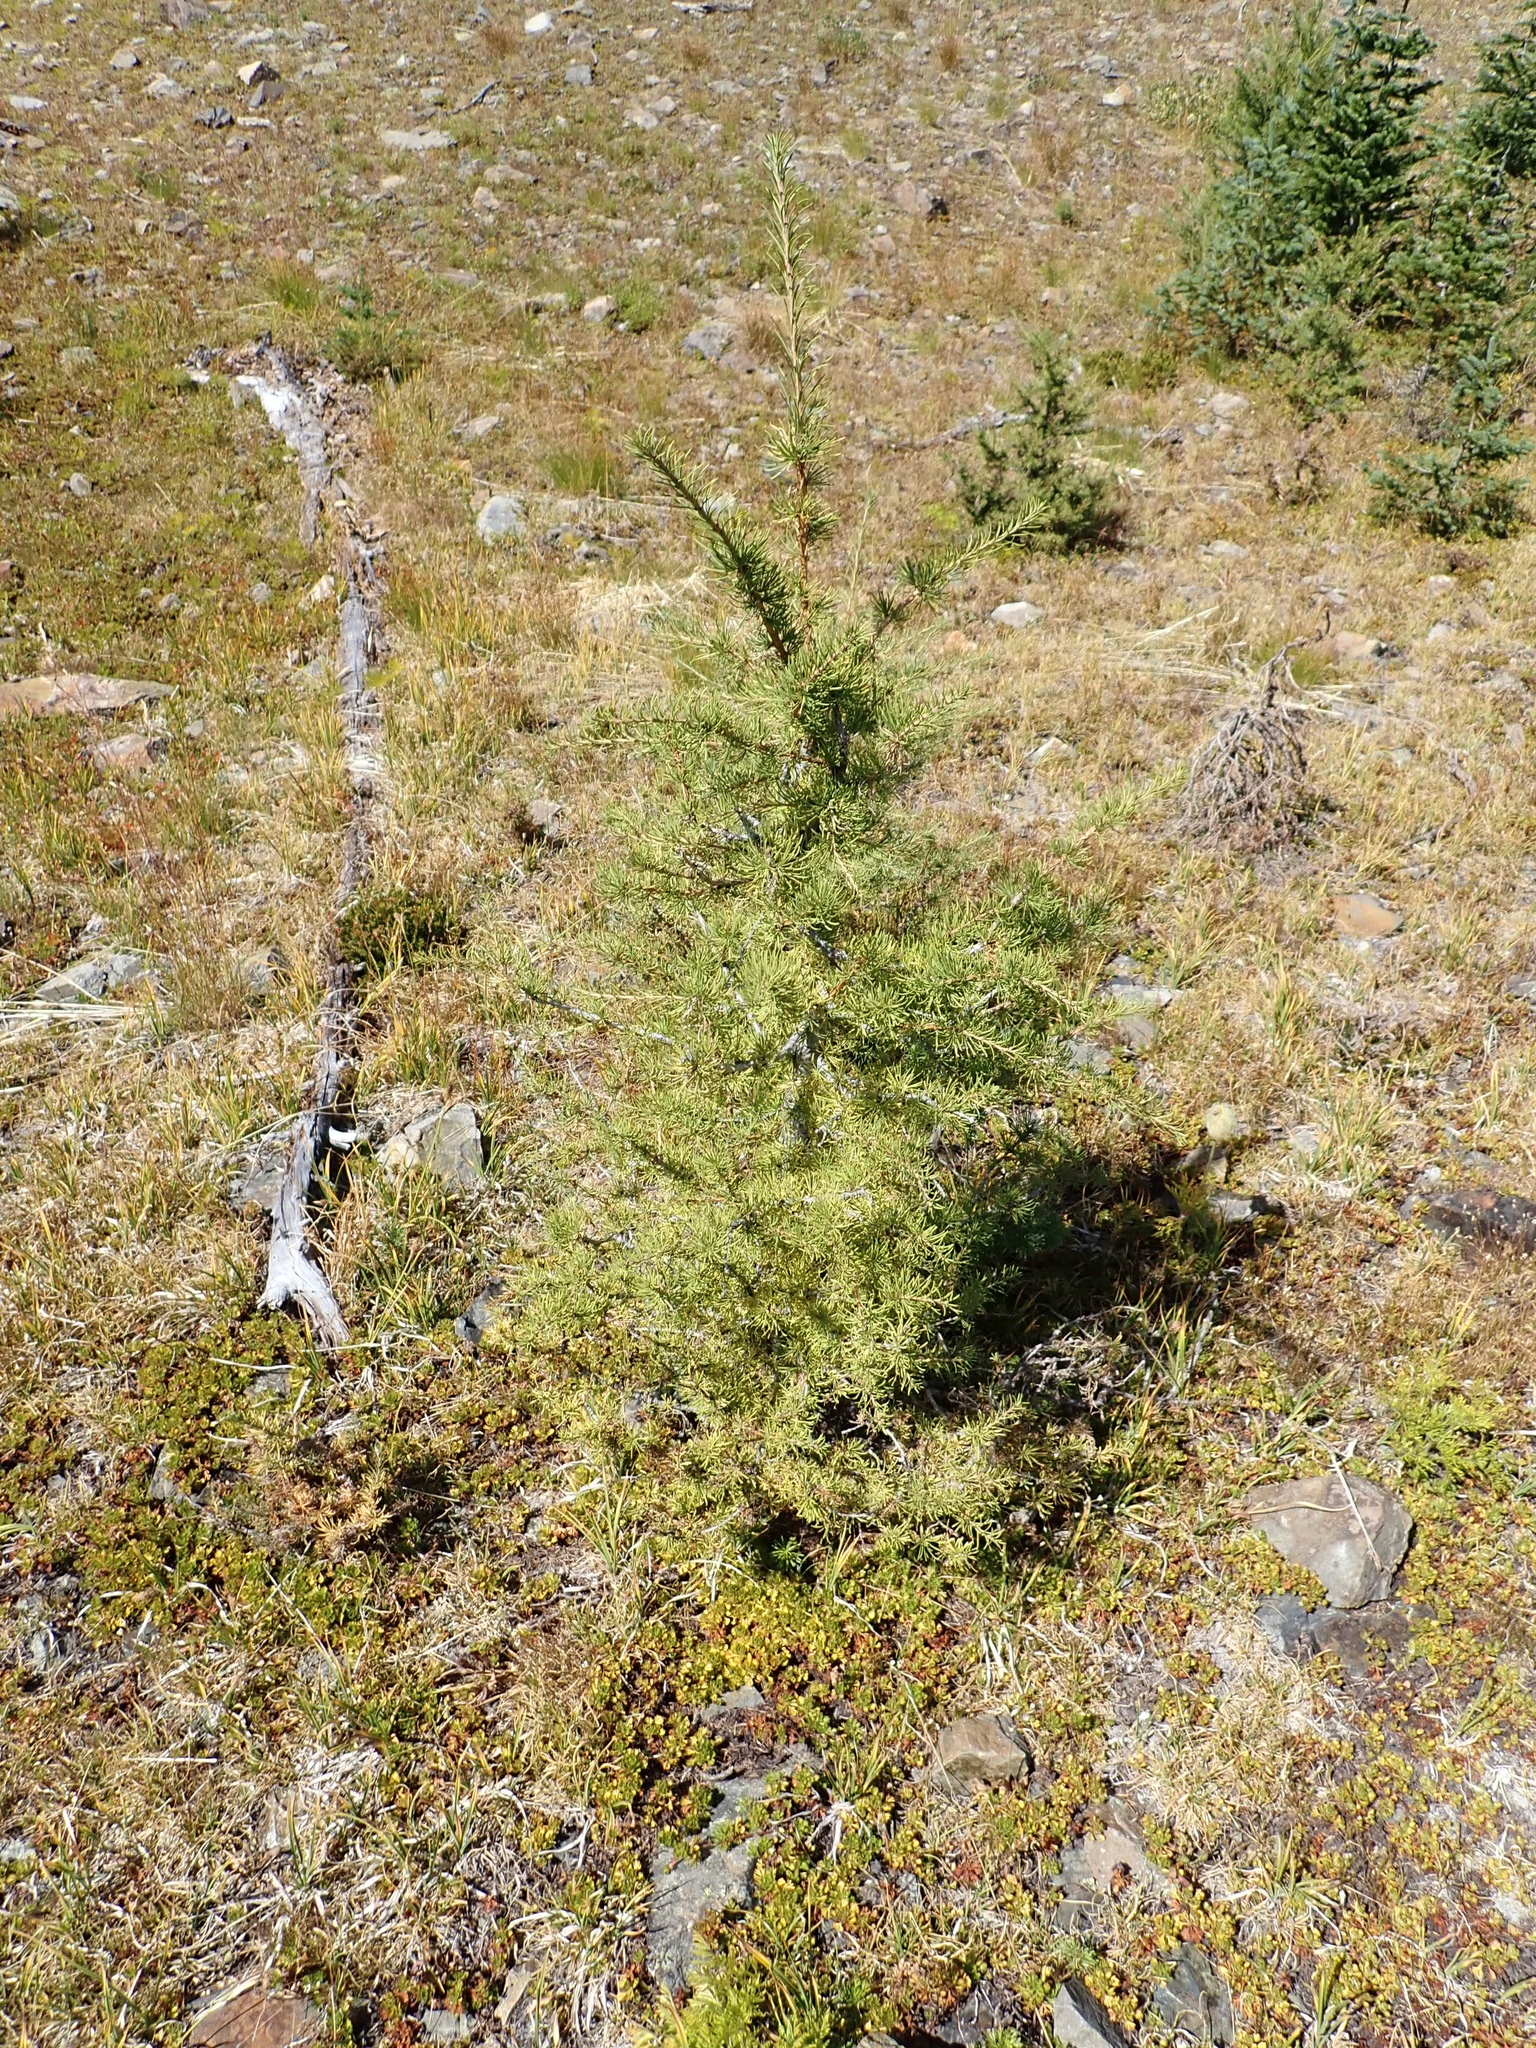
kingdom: Plantae
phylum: Tracheophyta
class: Pinopsida
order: Pinales
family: Pinaceae
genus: Larix
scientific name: Larix lyallii
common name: Alpine larch
